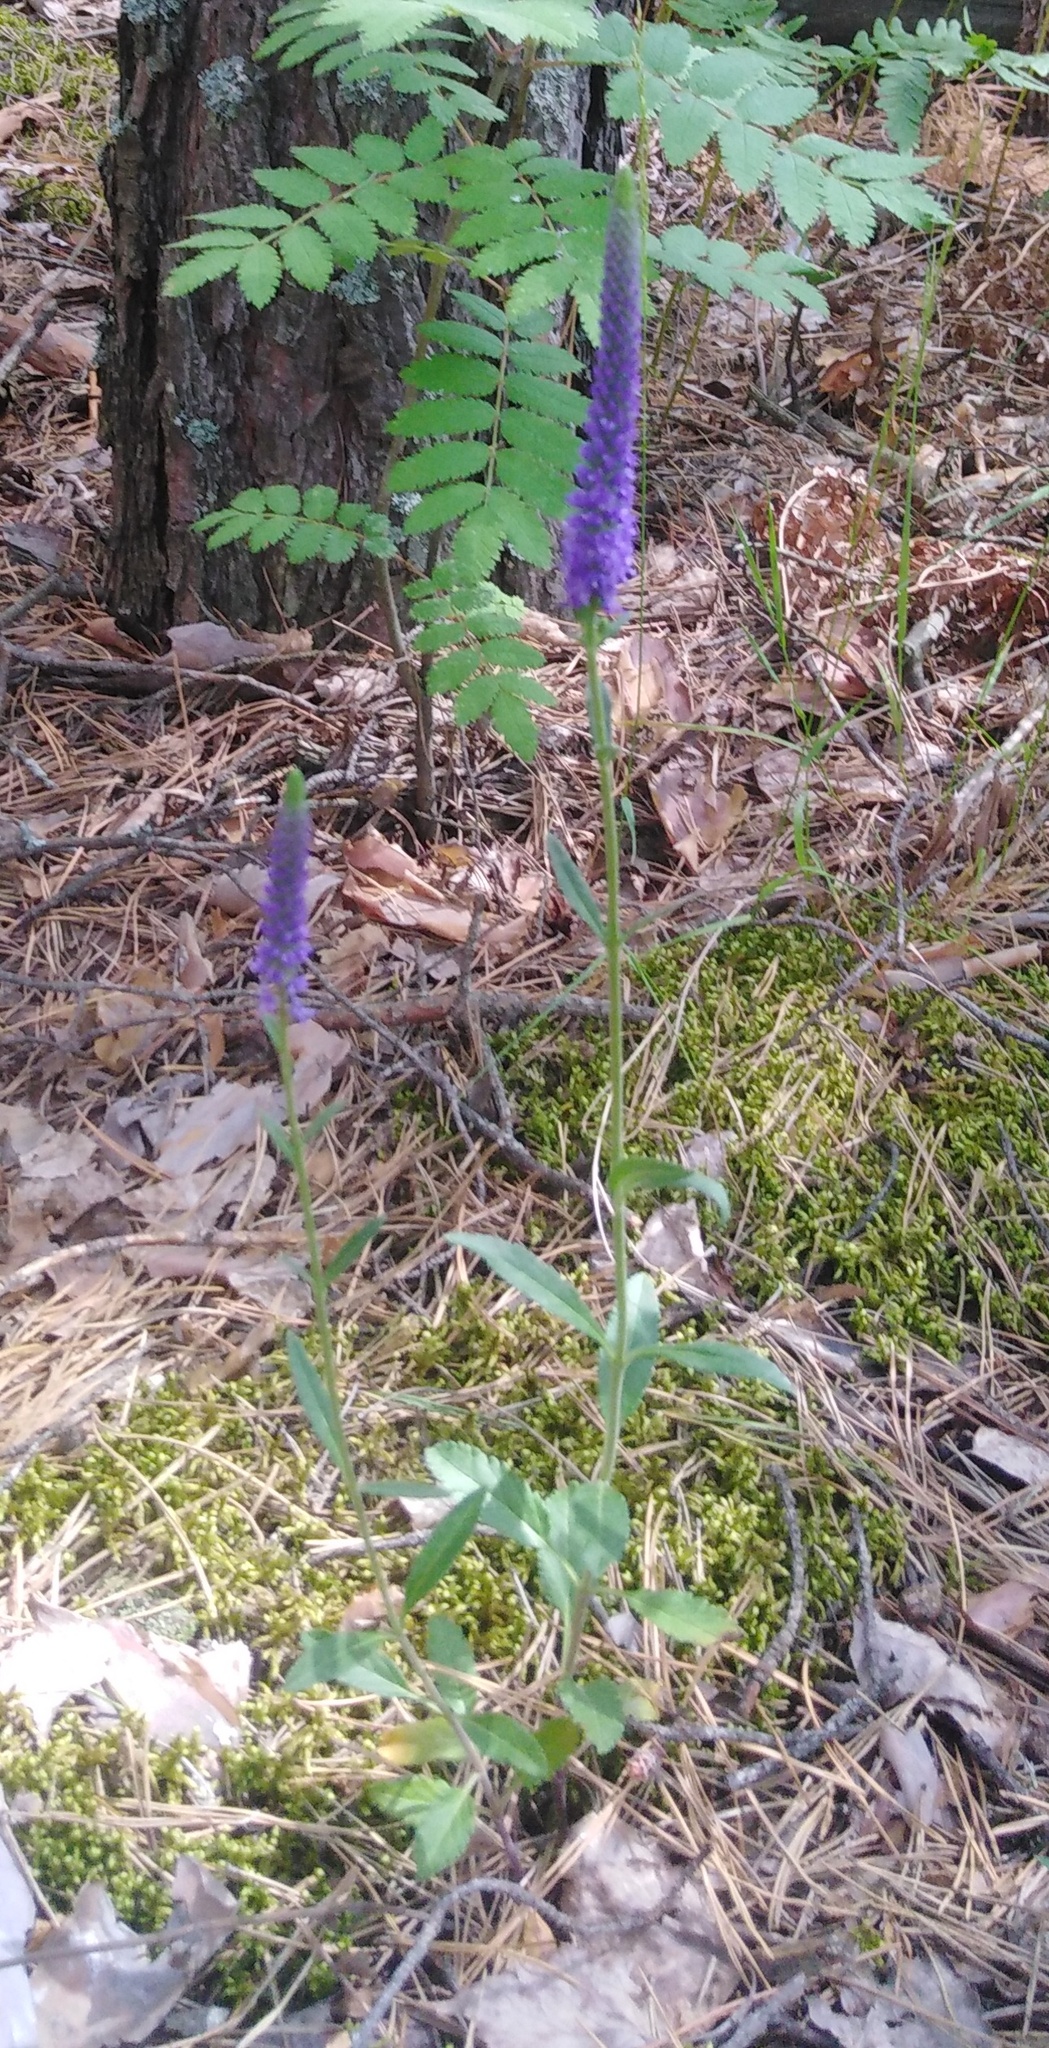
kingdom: Plantae
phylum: Tracheophyta
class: Magnoliopsida
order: Lamiales
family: Plantaginaceae
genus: Veronica
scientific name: Veronica spicata
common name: Spiked speedwell
